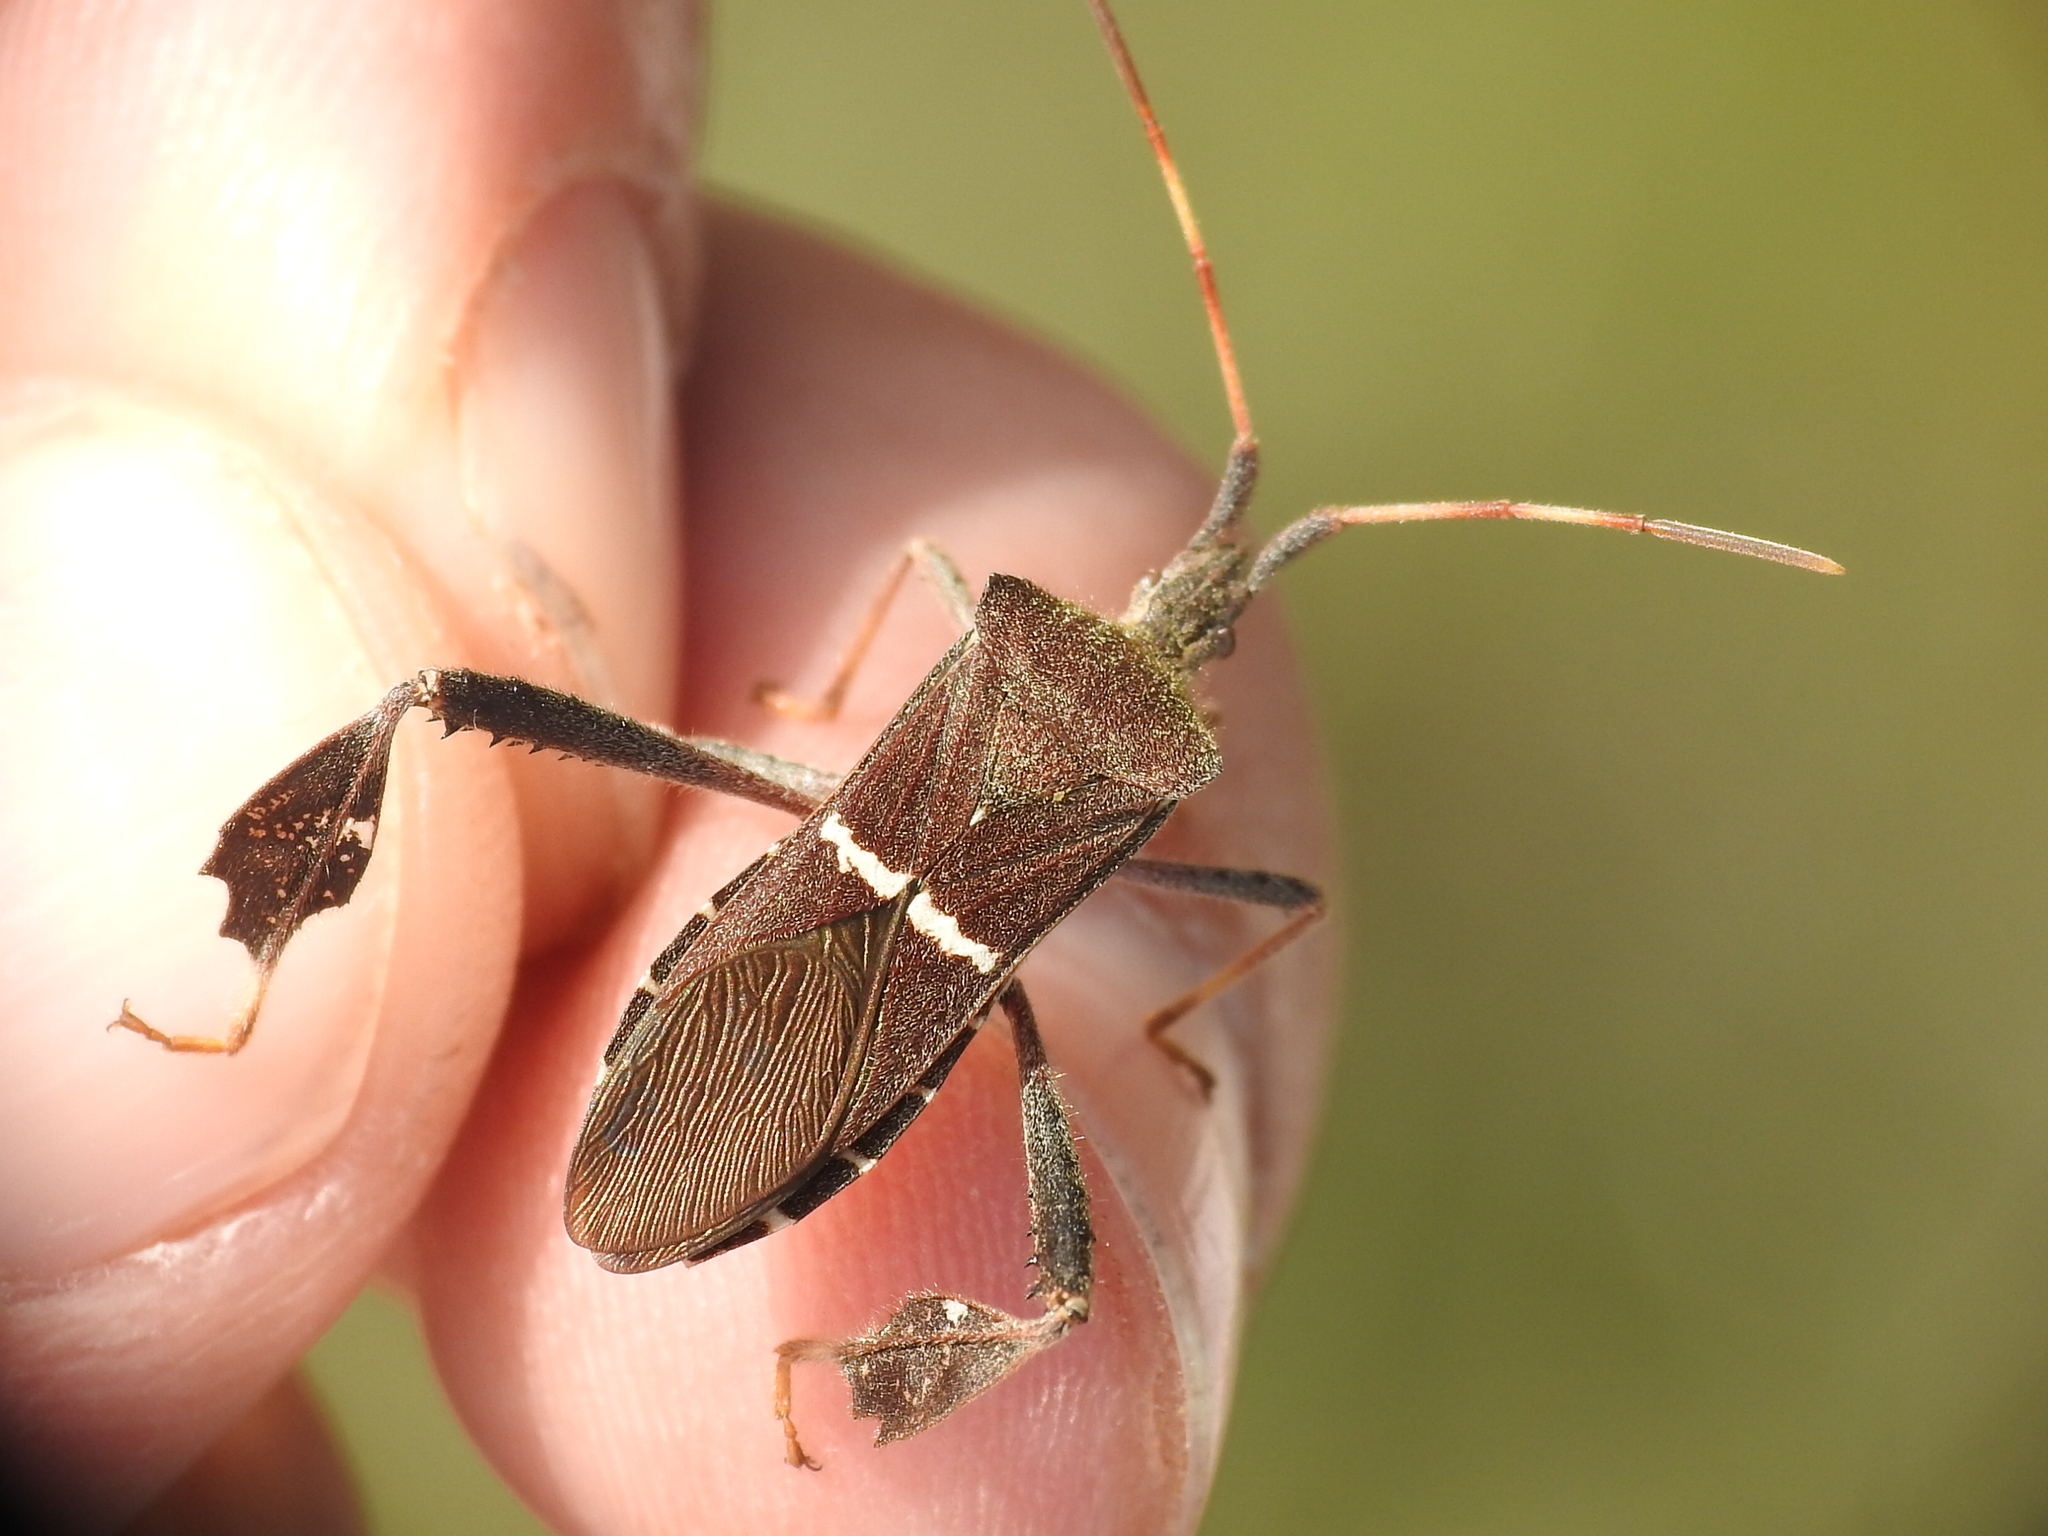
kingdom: Animalia
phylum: Arthropoda
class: Insecta
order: Hemiptera
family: Coreidae
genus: Leptoglossus
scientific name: Leptoglossus phyllopus
